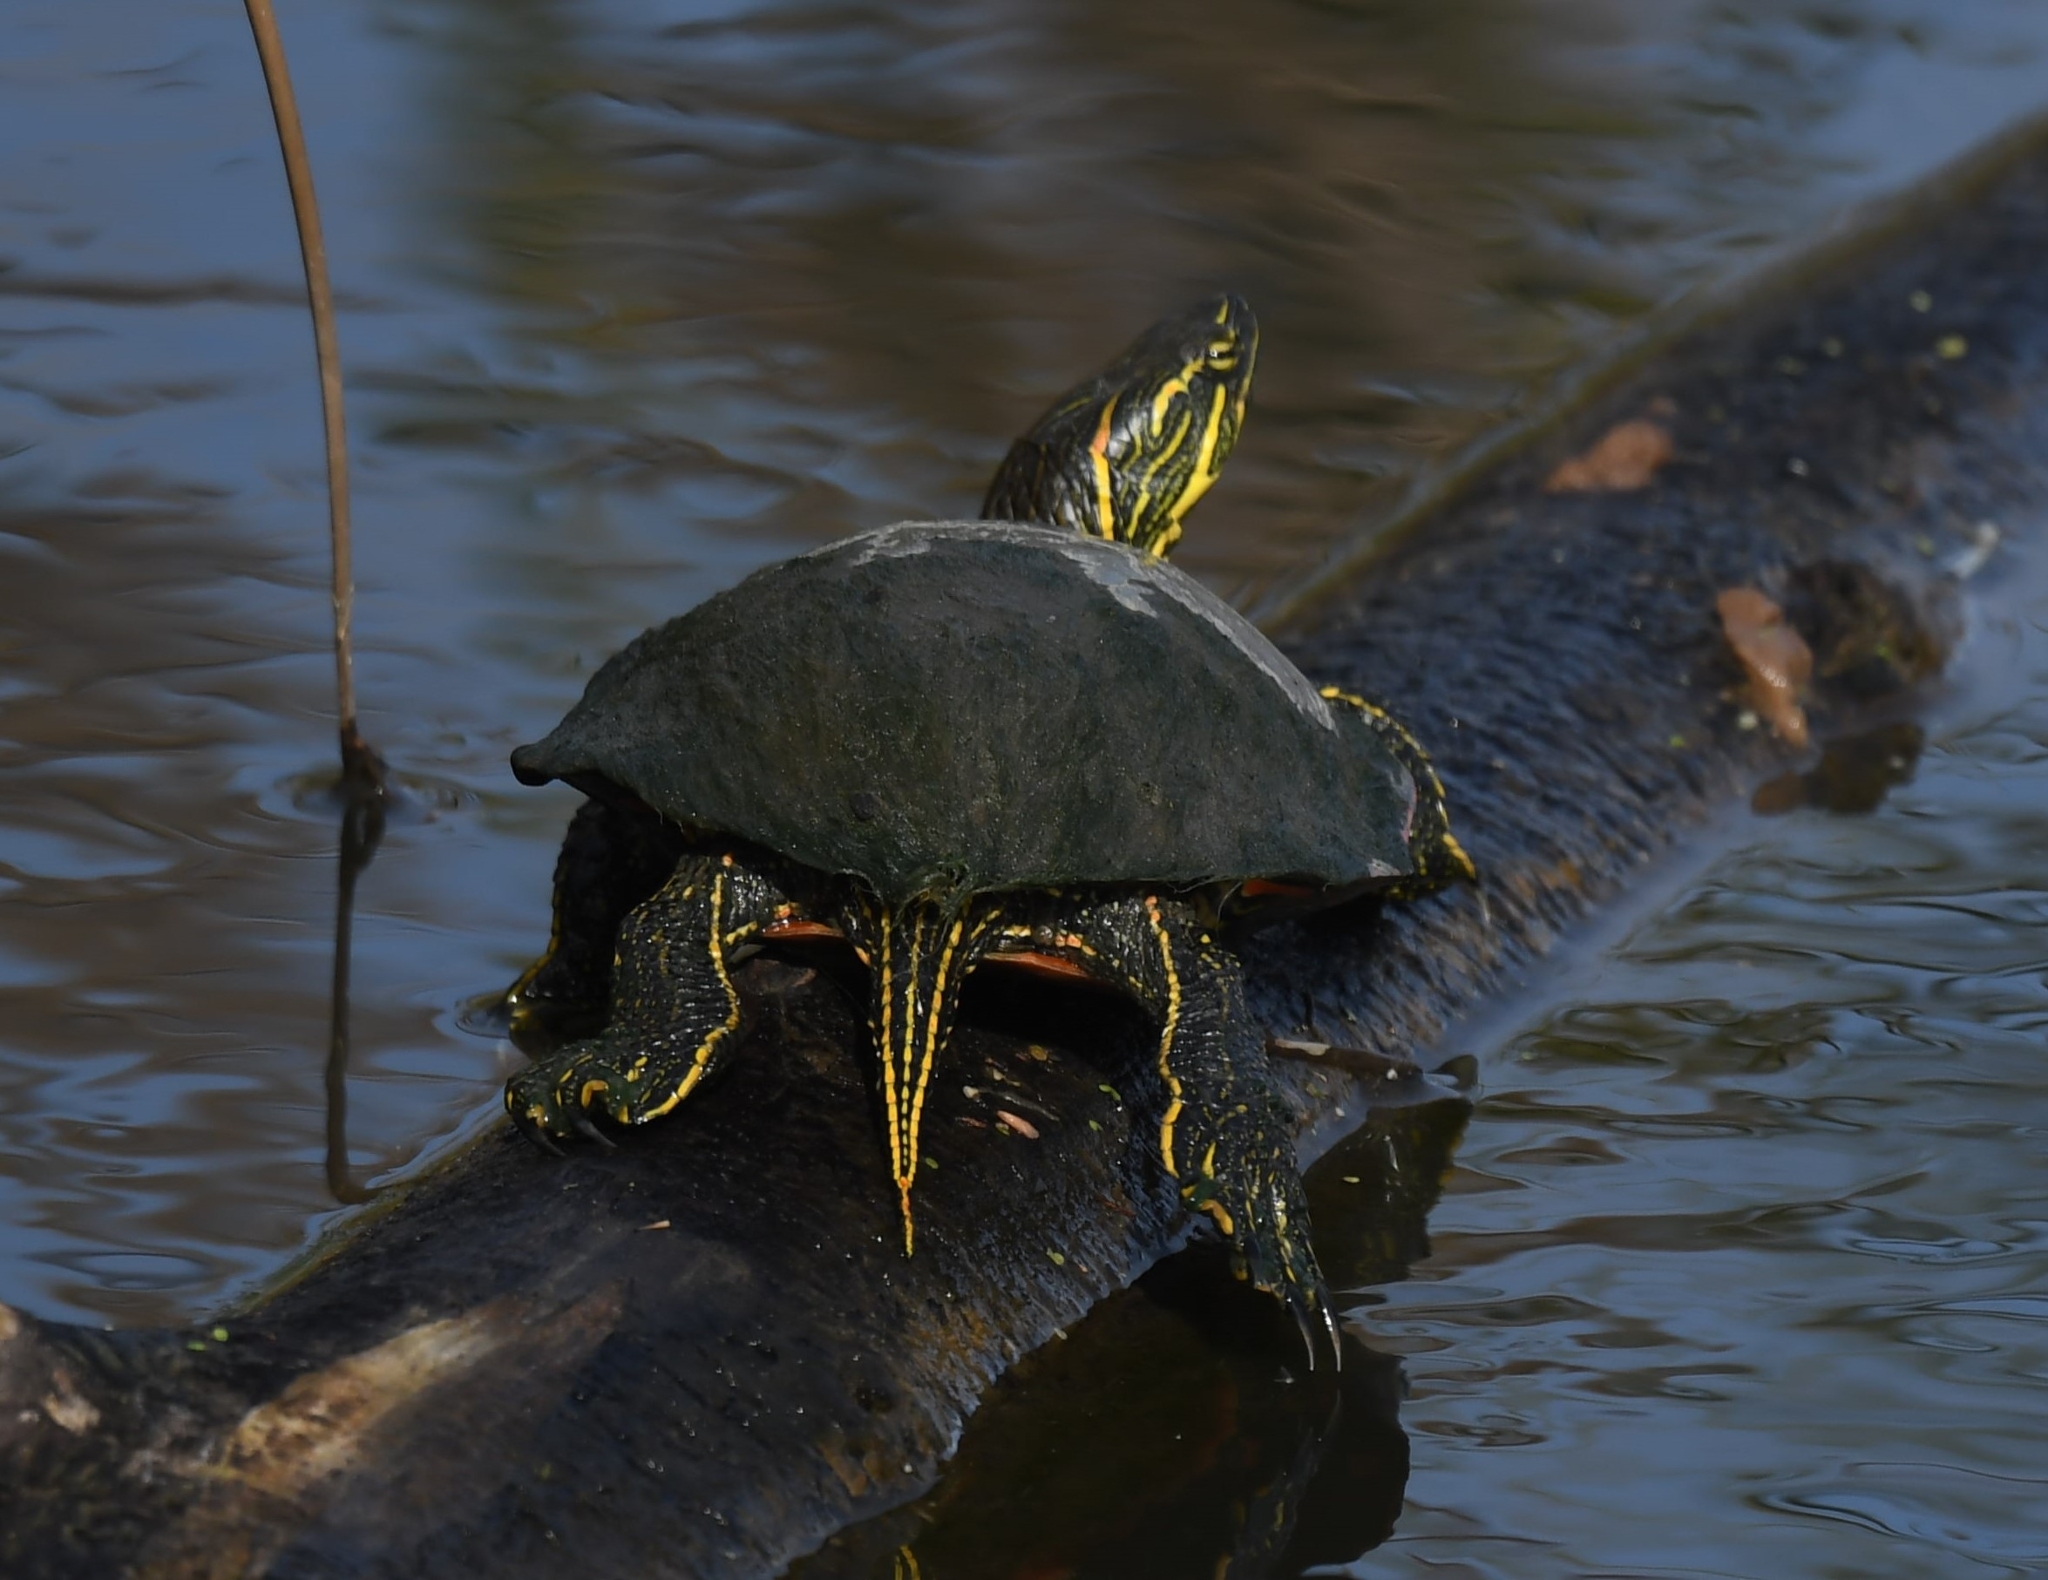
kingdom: Animalia
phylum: Chordata
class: Testudines
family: Emydidae
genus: Chrysemys
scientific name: Chrysemys picta
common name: Painted turtle
